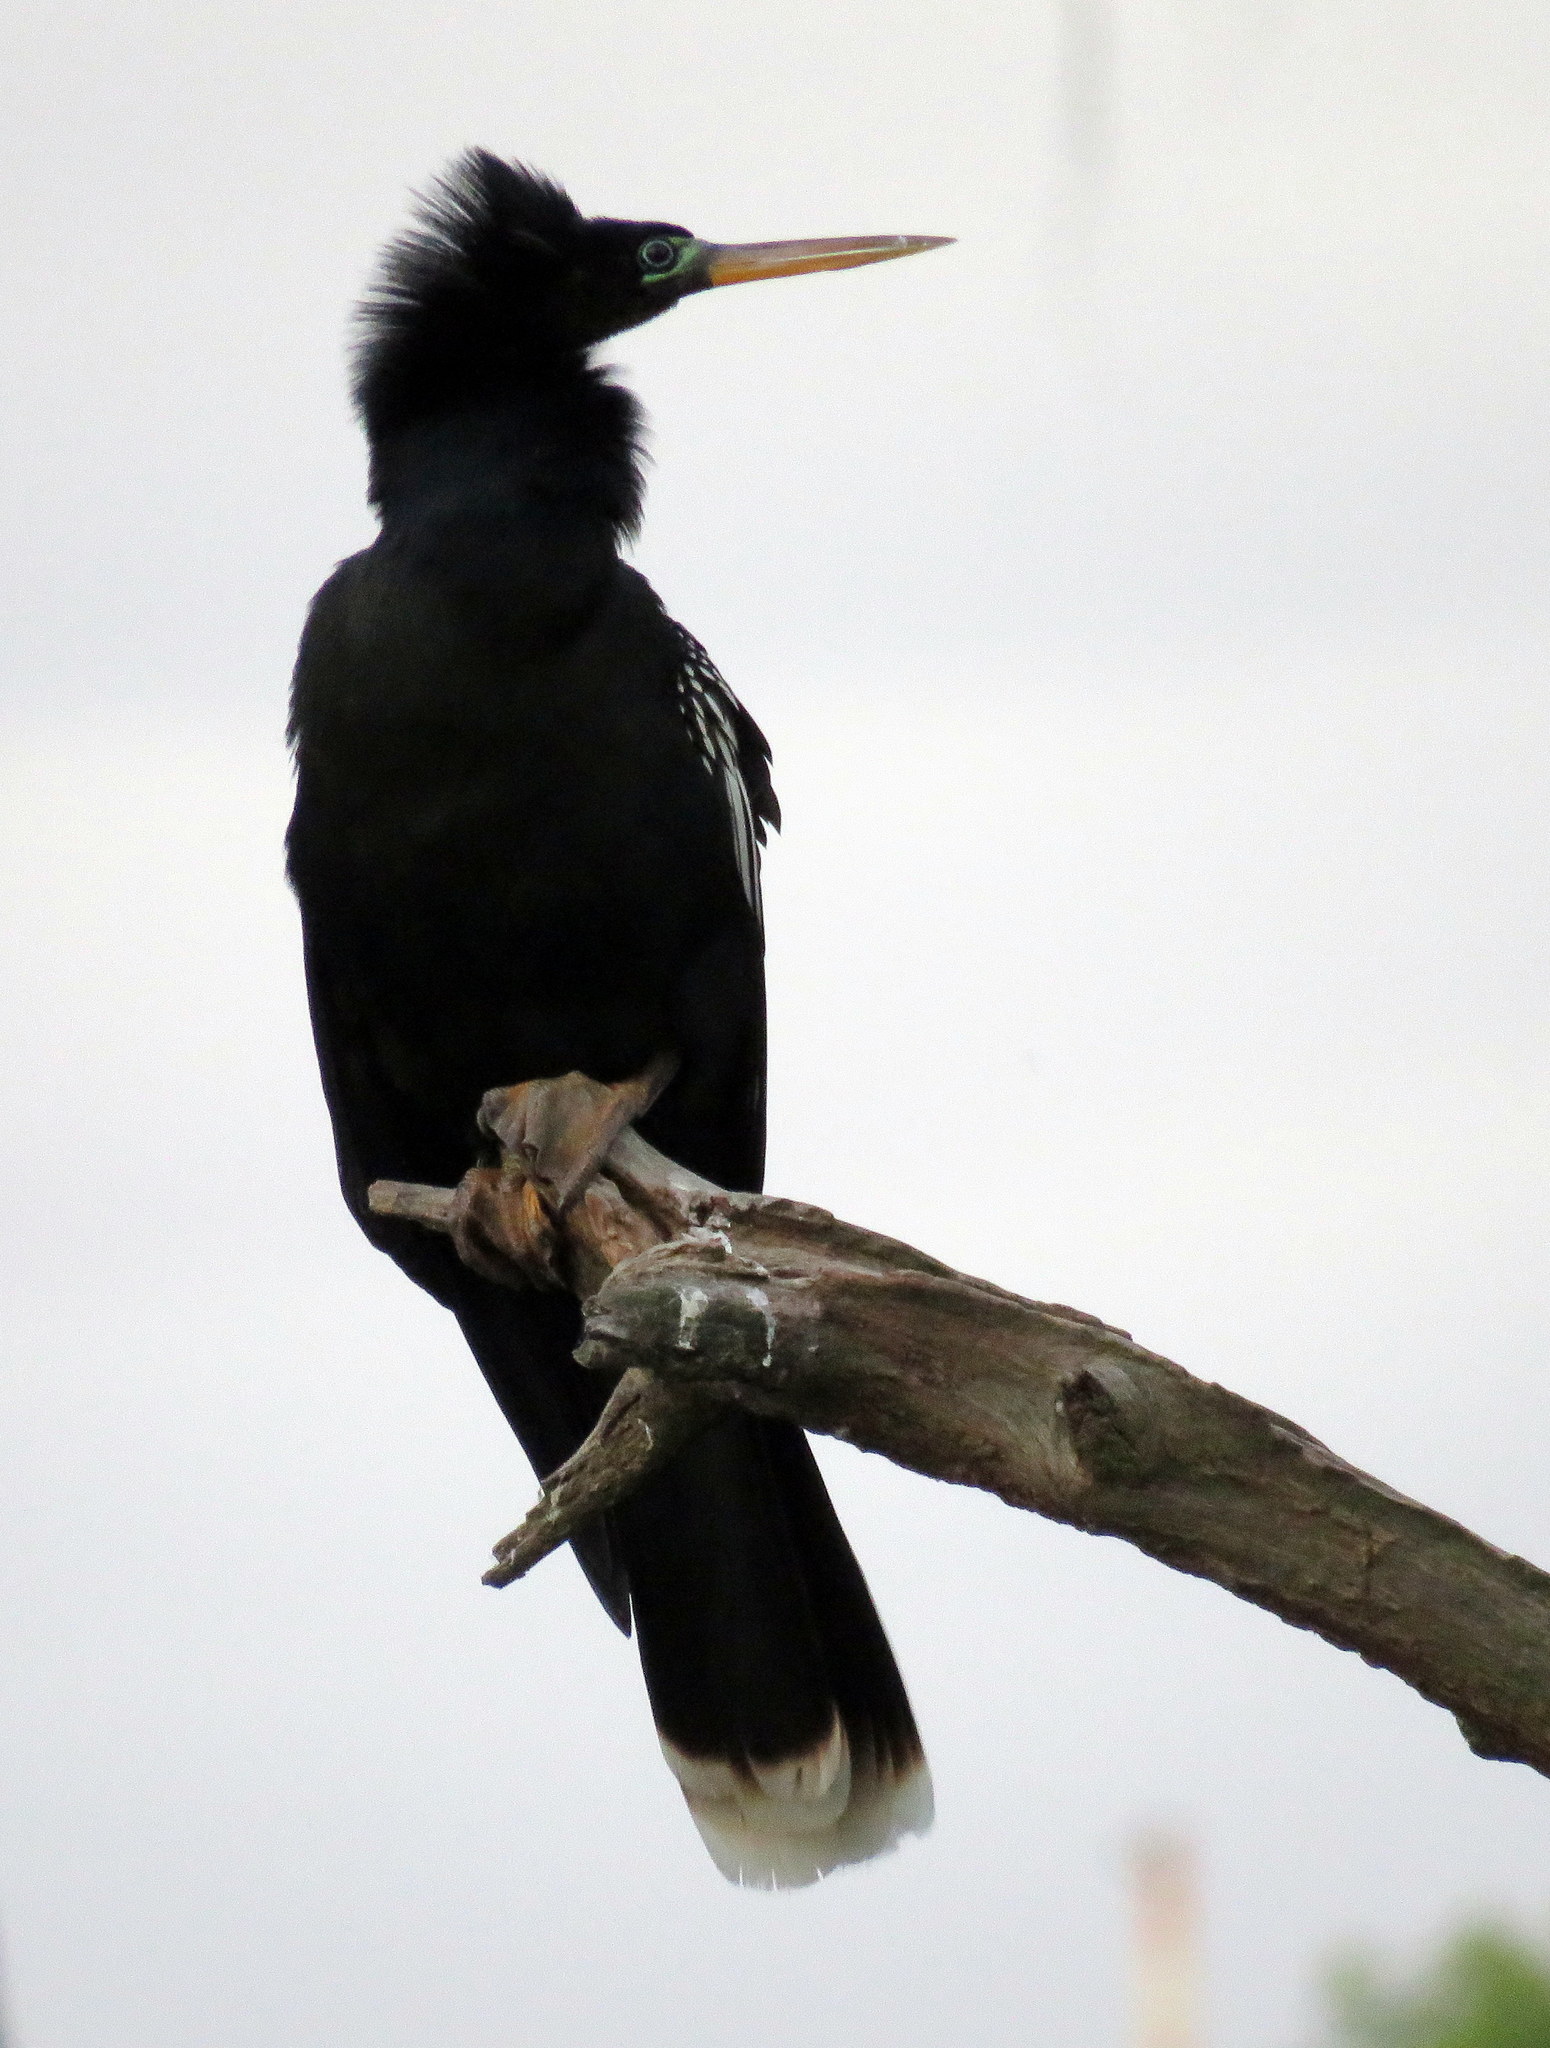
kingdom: Animalia
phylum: Chordata
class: Aves
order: Suliformes
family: Anhingidae
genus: Anhinga
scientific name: Anhinga anhinga
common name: Anhinga
